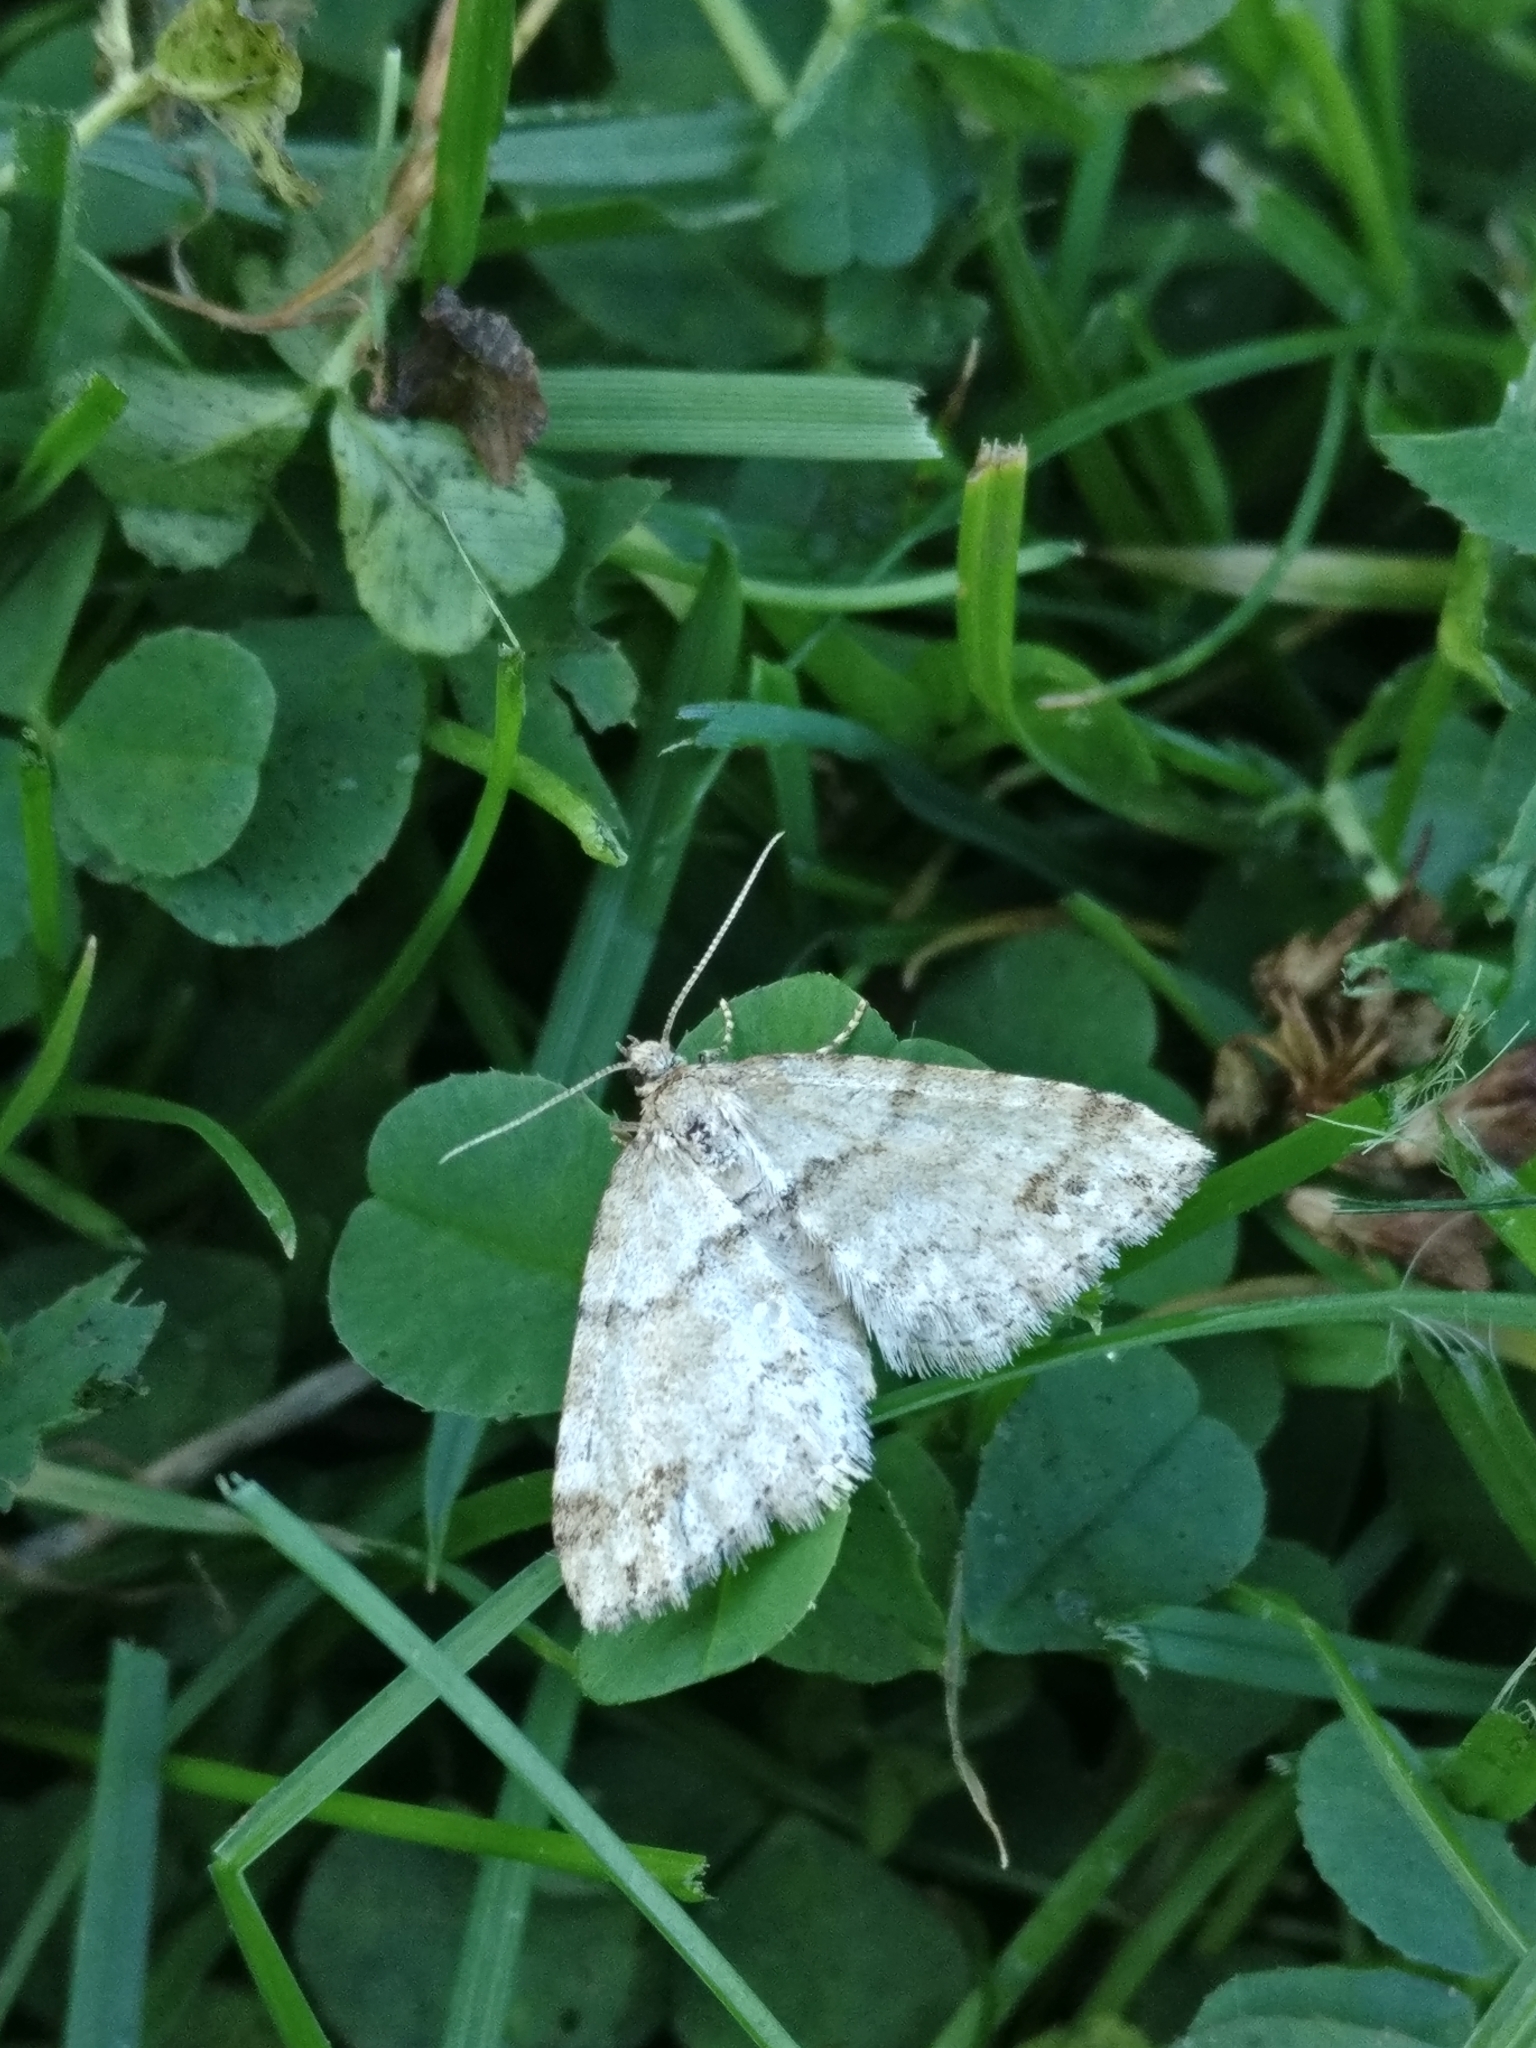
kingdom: Animalia
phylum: Arthropoda
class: Insecta
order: Lepidoptera
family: Geometridae
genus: Perizoma
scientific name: Perizoma didymata
